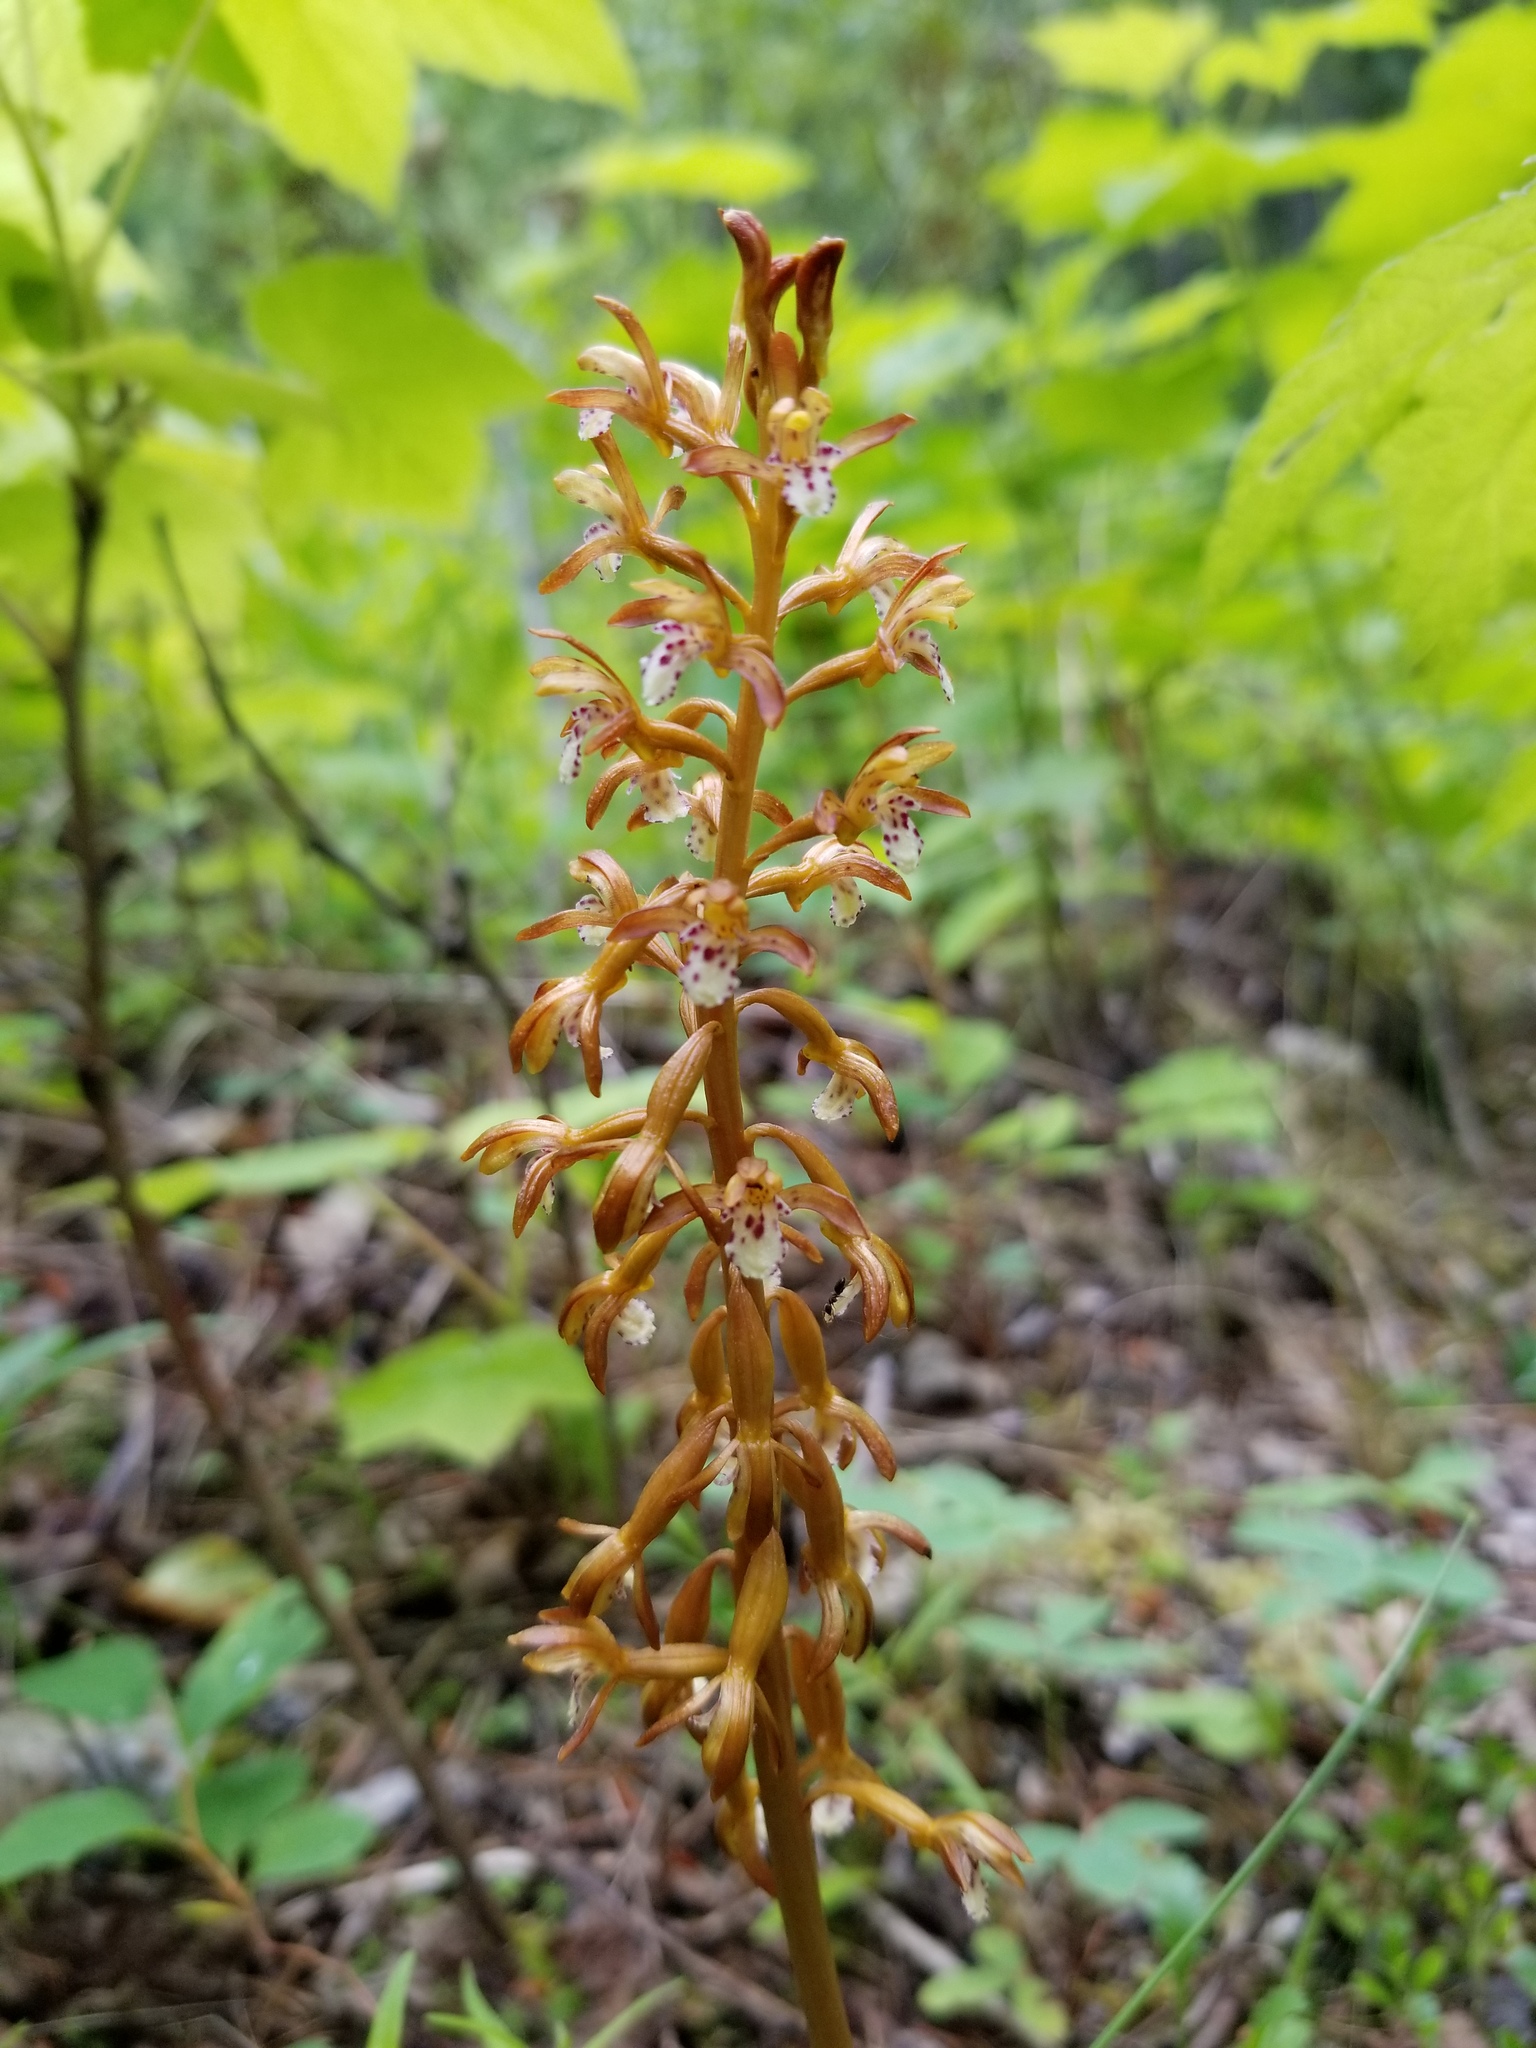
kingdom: Plantae
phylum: Tracheophyta
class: Liliopsida
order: Asparagales
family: Orchidaceae
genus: Corallorhiza
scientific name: Corallorhiza maculata
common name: Spotted coralroot
